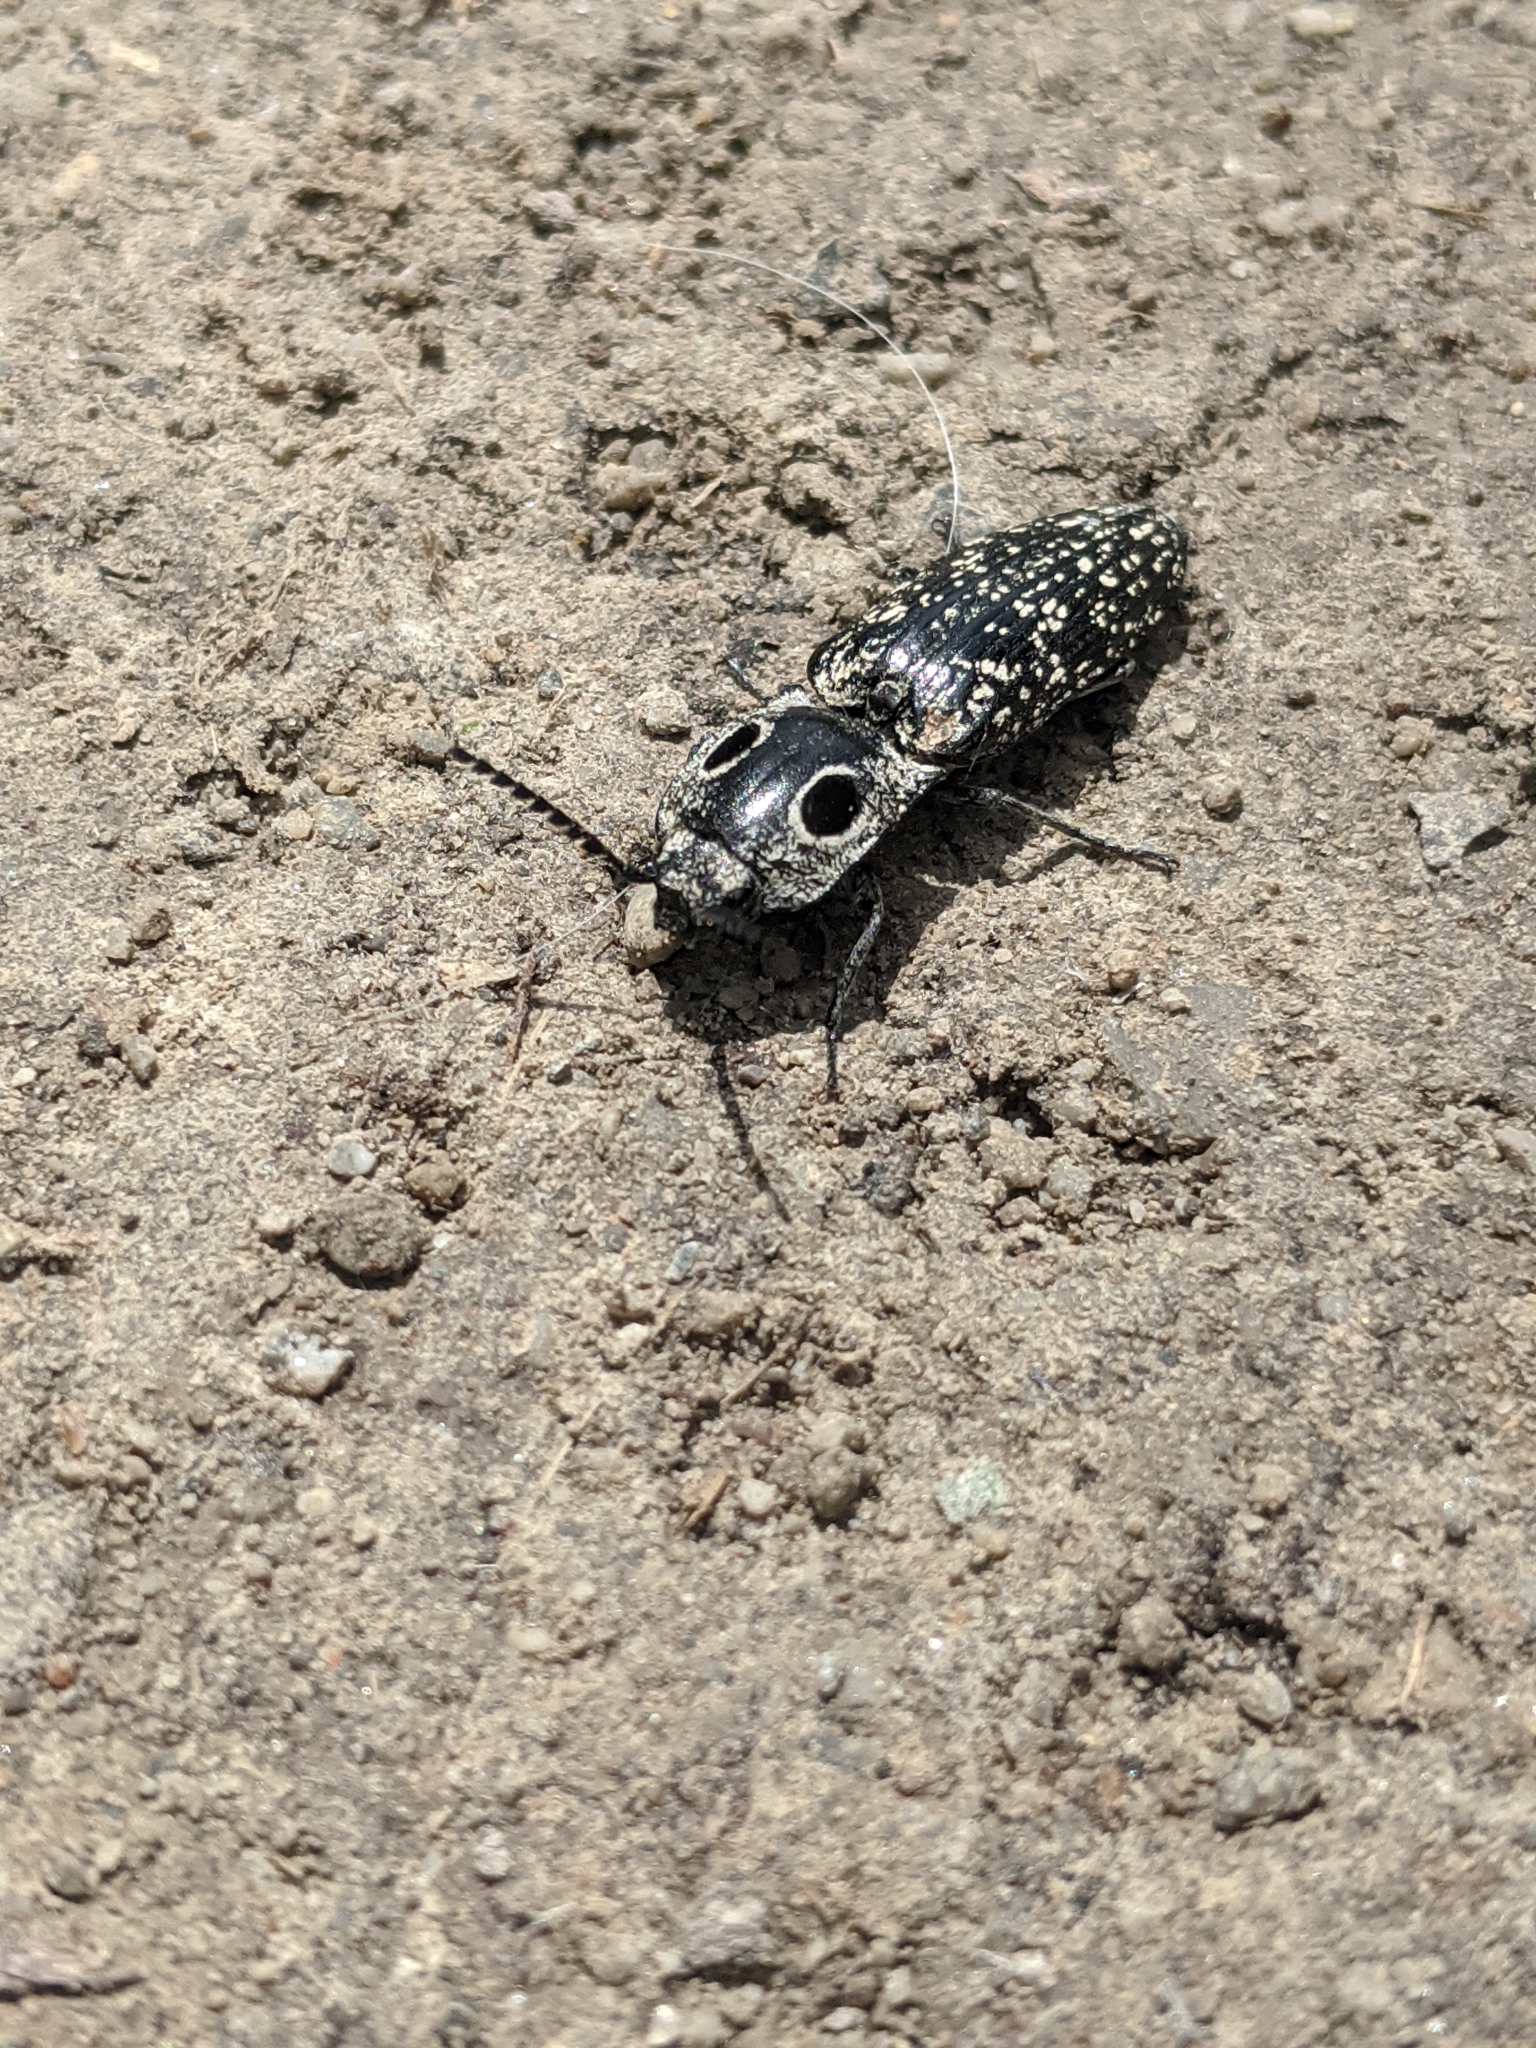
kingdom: Animalia
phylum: Arthropoda
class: Insecta
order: Coleoptera
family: Elateridae
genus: Alaus
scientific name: Alaus oculatus
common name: Eastern eyed click beetle
